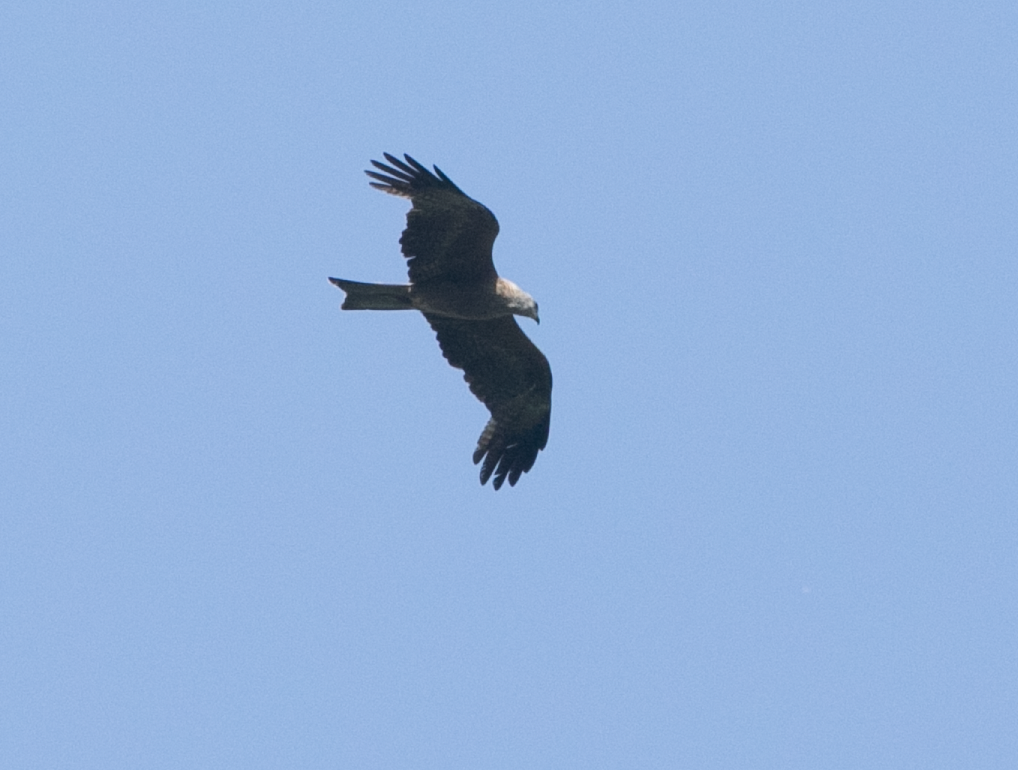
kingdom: Animalia
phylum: Chordata
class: Aves
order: Accipitriformes
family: Accipitridae
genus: Milvus
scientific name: Milvus migrans
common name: Black kite
